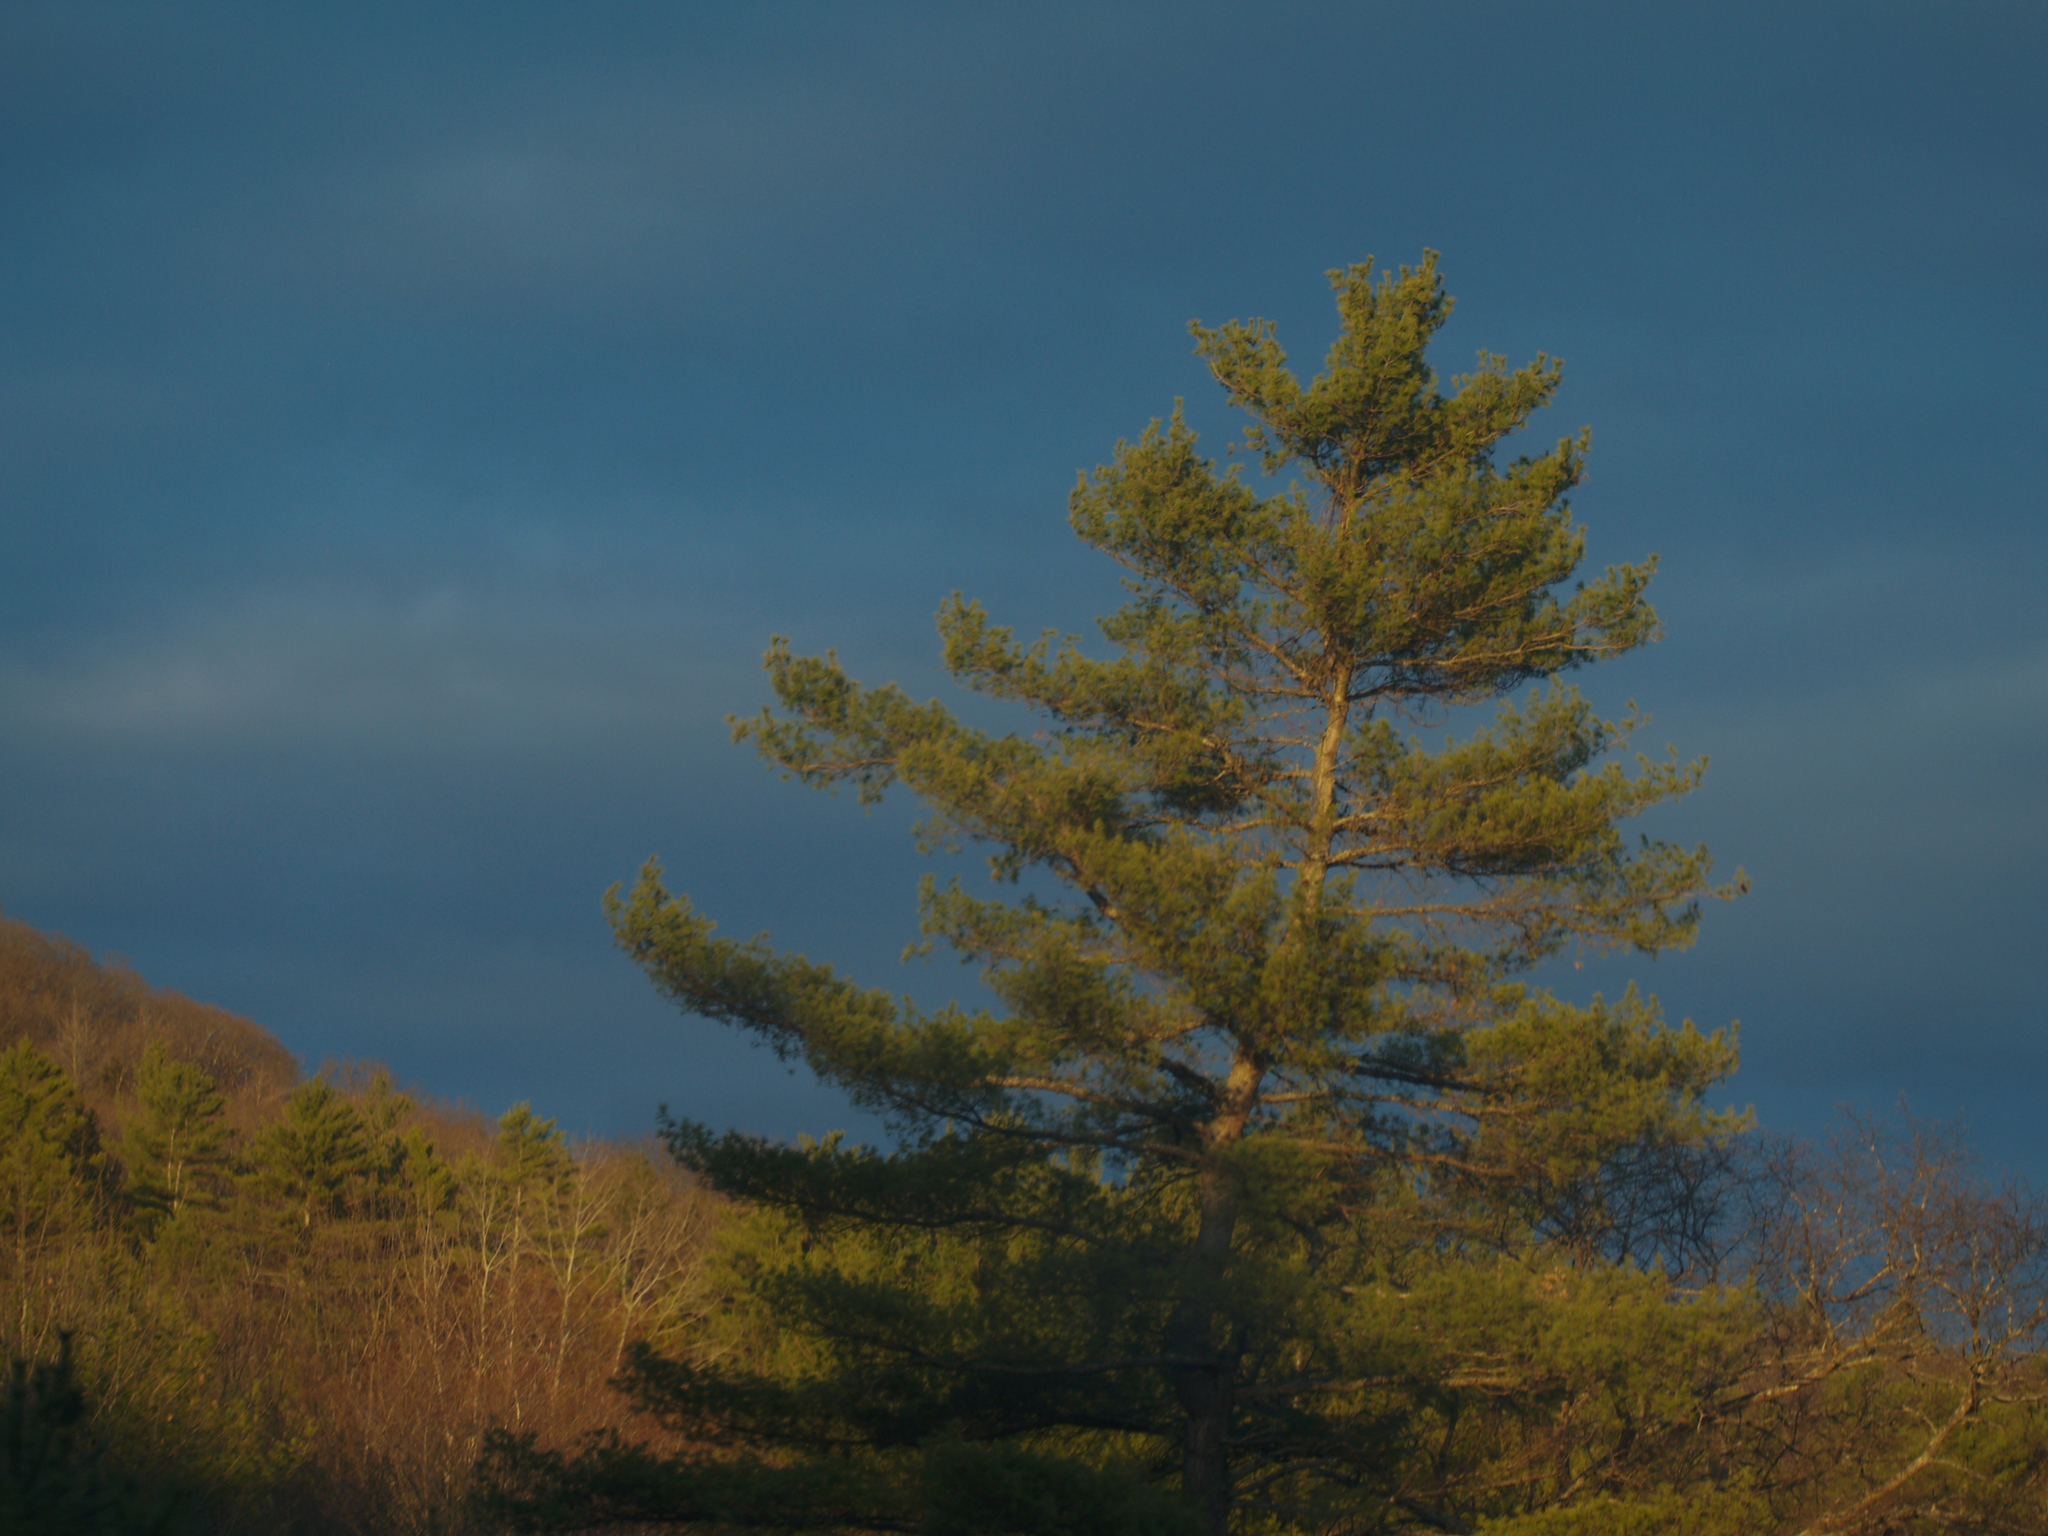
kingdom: Plantae
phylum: Tracheophyta
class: Pinopsida
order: Pinales
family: Pinaceae
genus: Pinus
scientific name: Pinus strobus
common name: Weymouth pine
